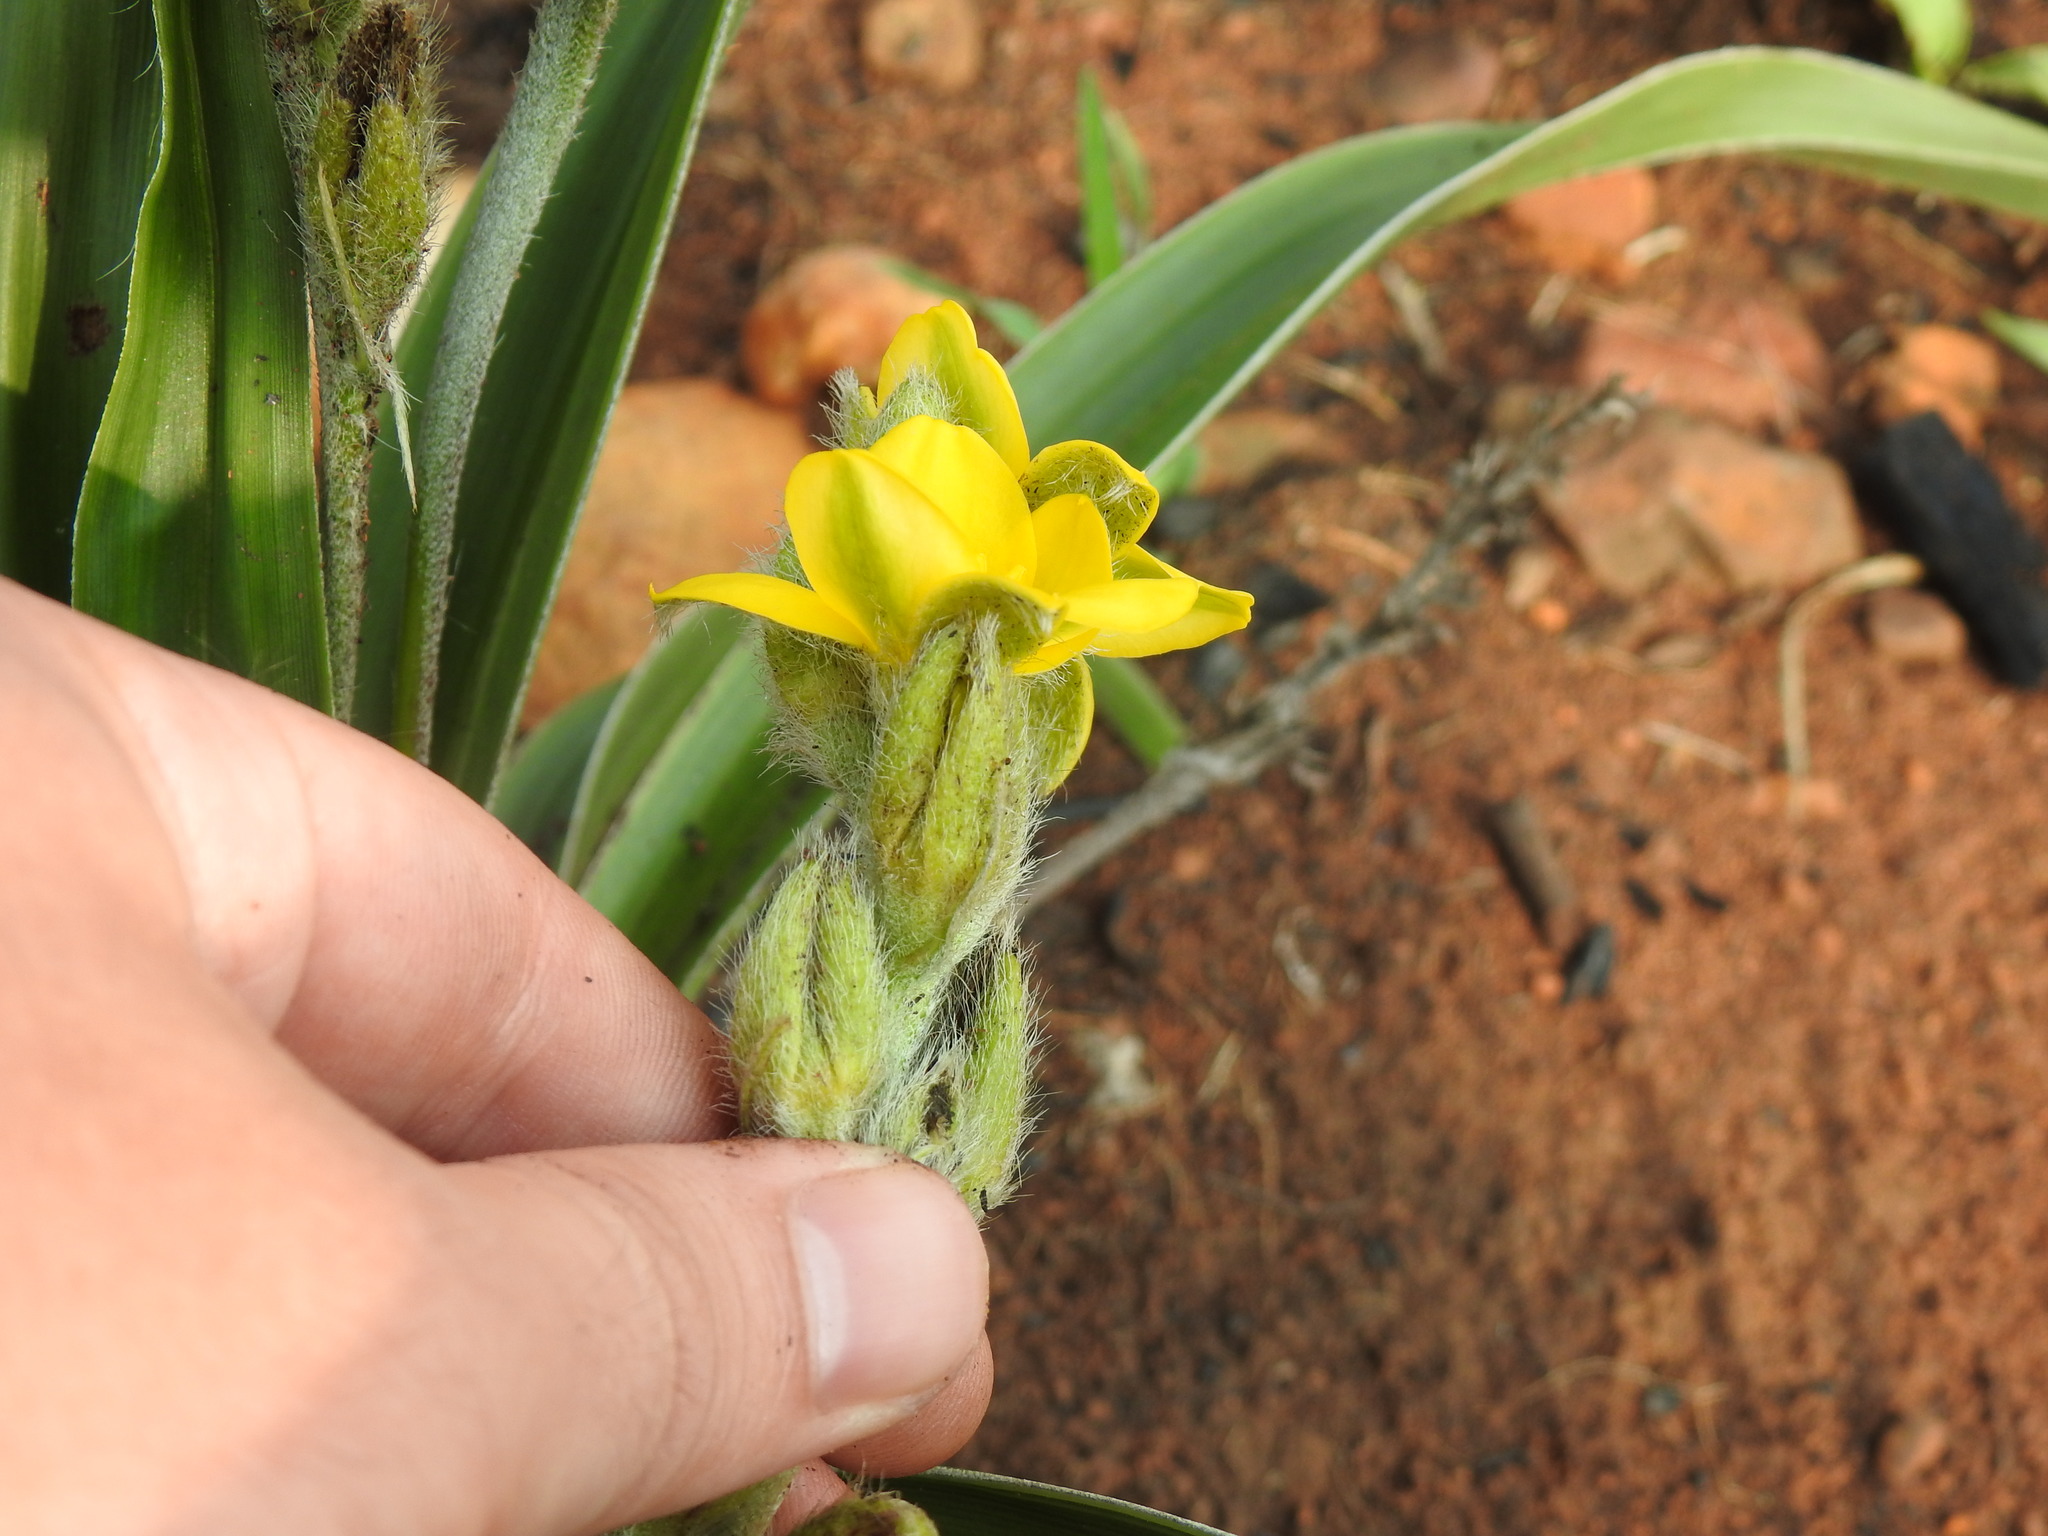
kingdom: Plantae
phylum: Tracheophyta
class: Liliopsida
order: Asparagales
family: Hypoxidaceae
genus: Hypoxis
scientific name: Hypoxis obtusa
